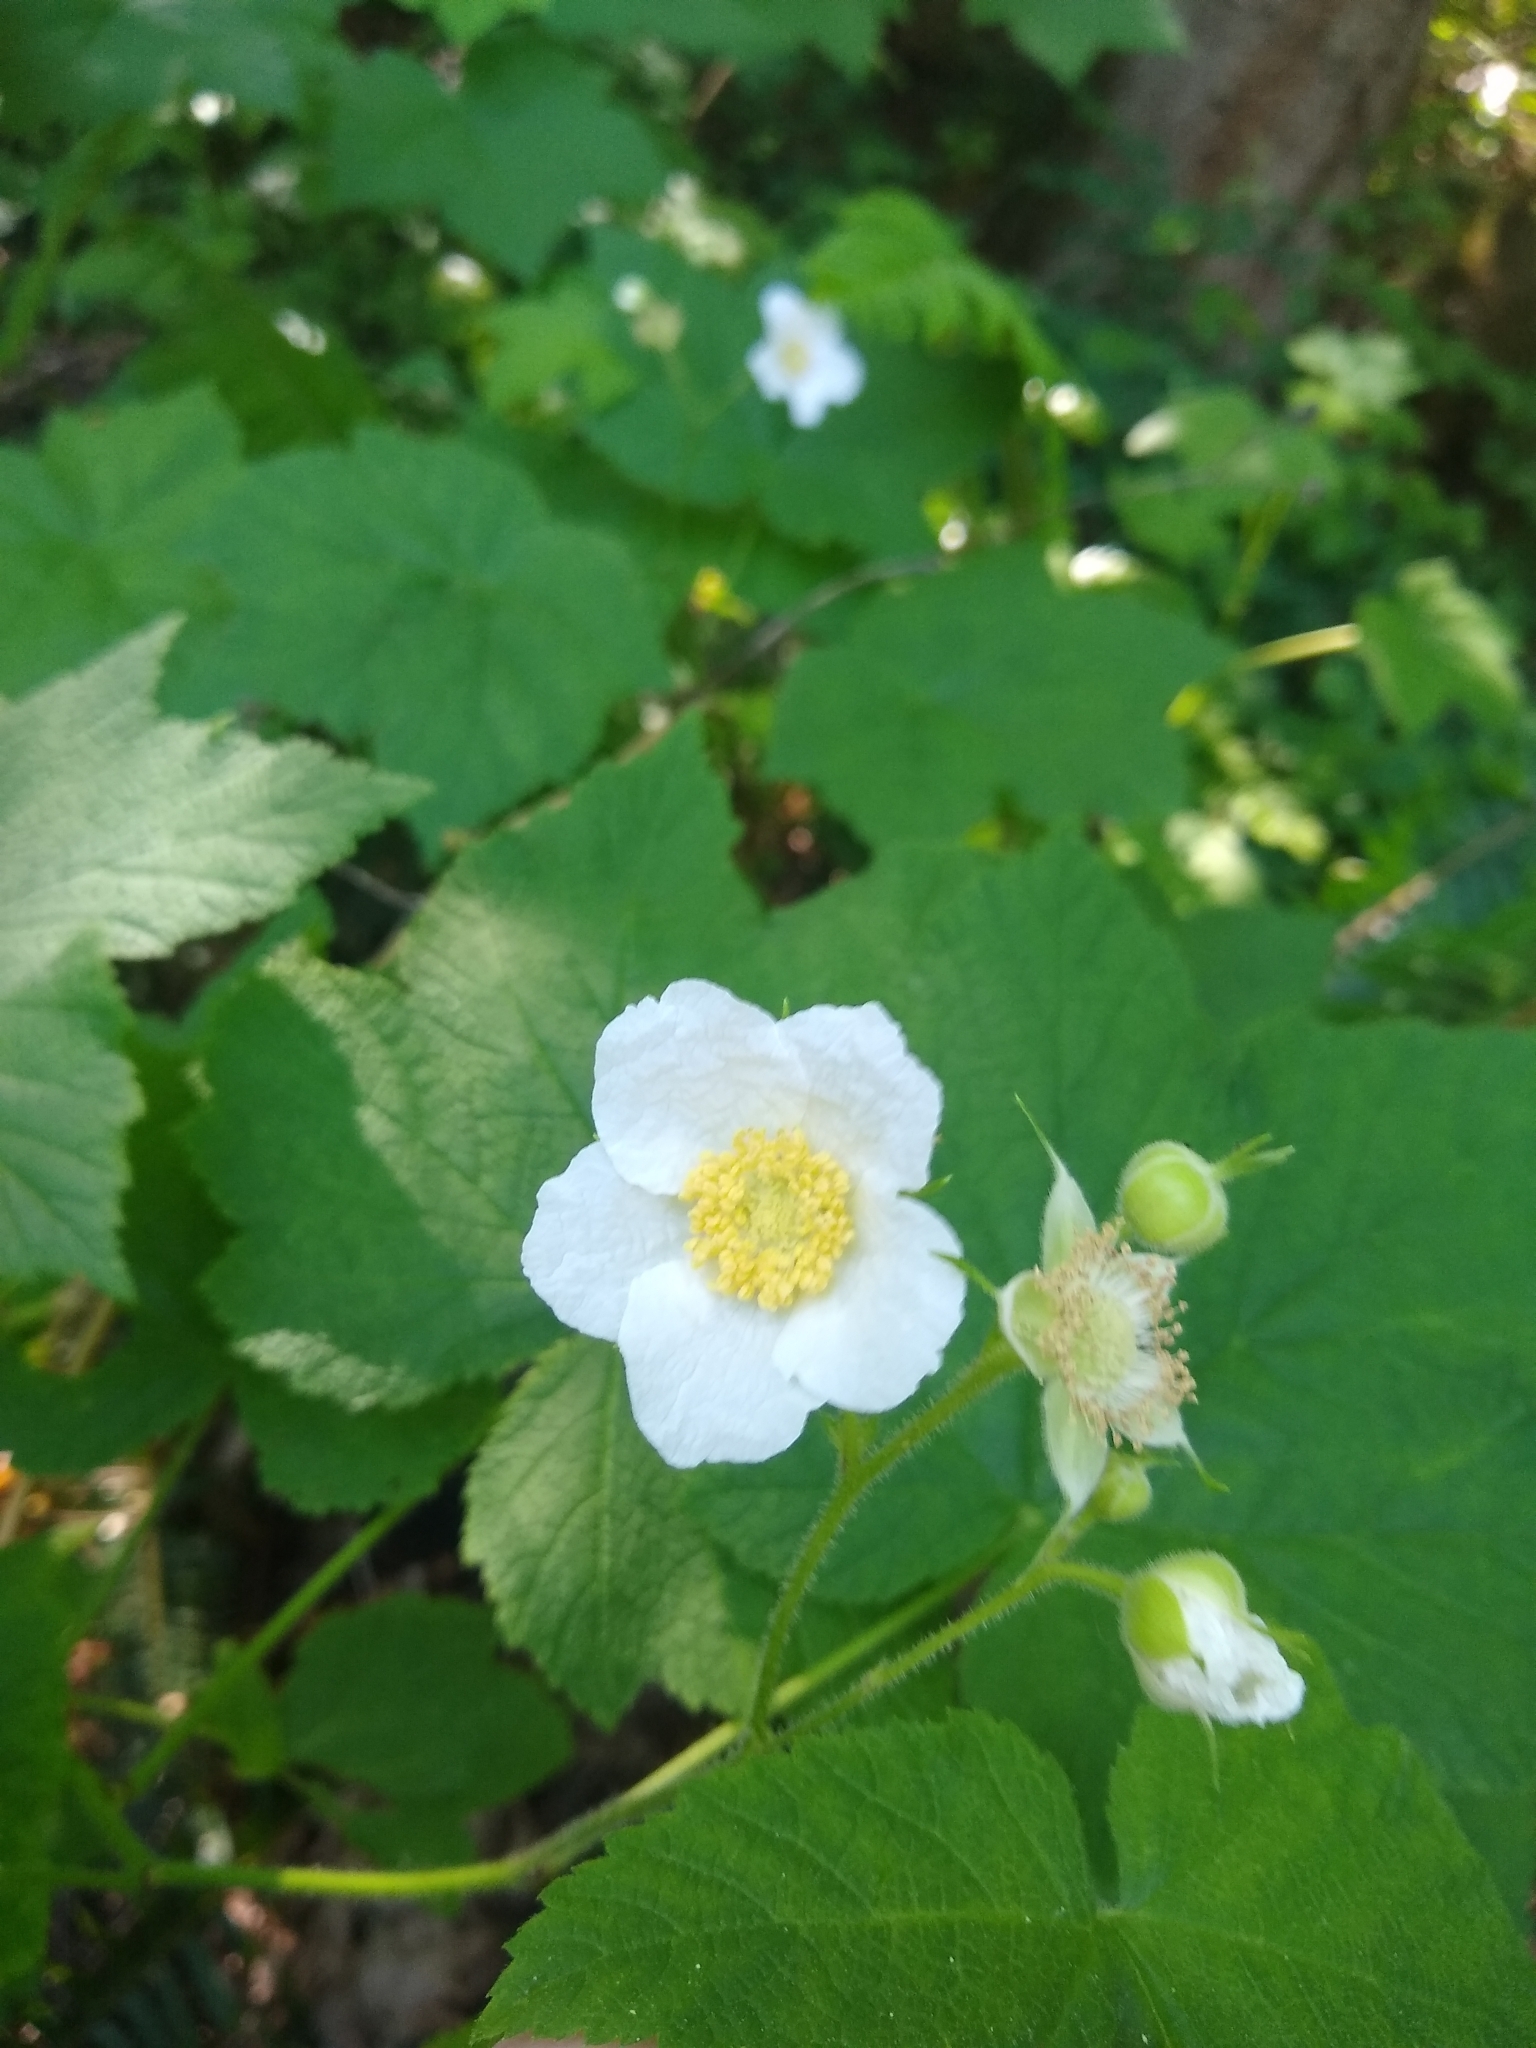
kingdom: Plantae
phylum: Tracheophyta
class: Magnoliopsida
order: Rosales
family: Rosaceae
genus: Rubus
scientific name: Rubus parviflorus
